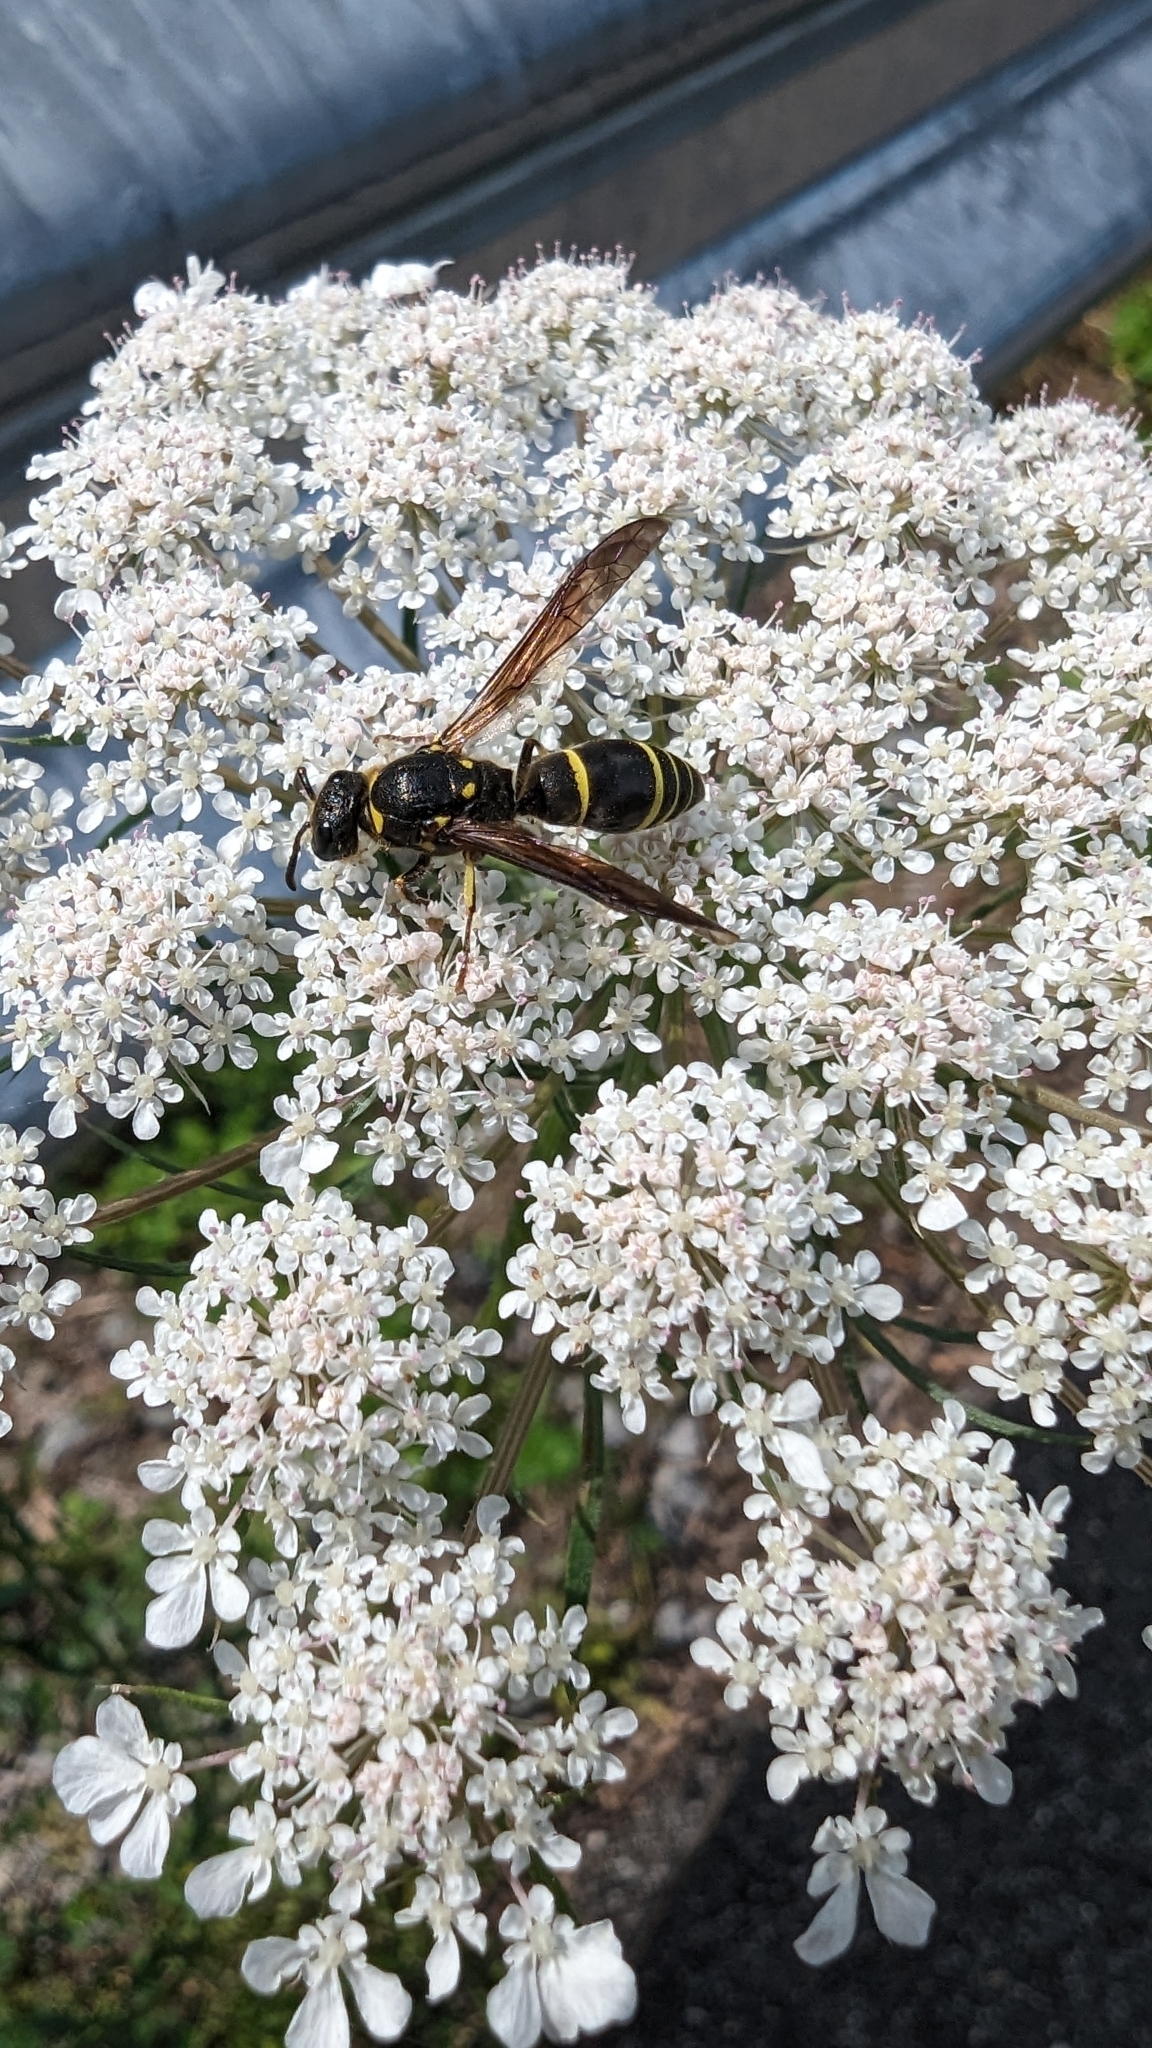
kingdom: Animalia
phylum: Arthropoda
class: Insecta
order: Hymenoptera
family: Vespidae
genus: Ancistrocerus
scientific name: Ancistrocerus
